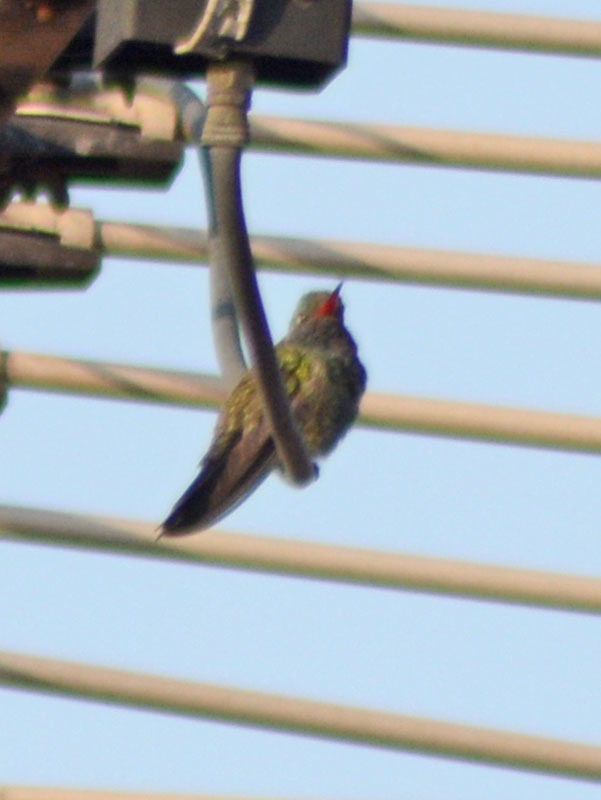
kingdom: Animalia
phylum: Chordata
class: Aves
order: Apodiformes
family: Trochilidae
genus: Cynanthus
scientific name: Cynanthus latirostris
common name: Broad-billed hummingbird
